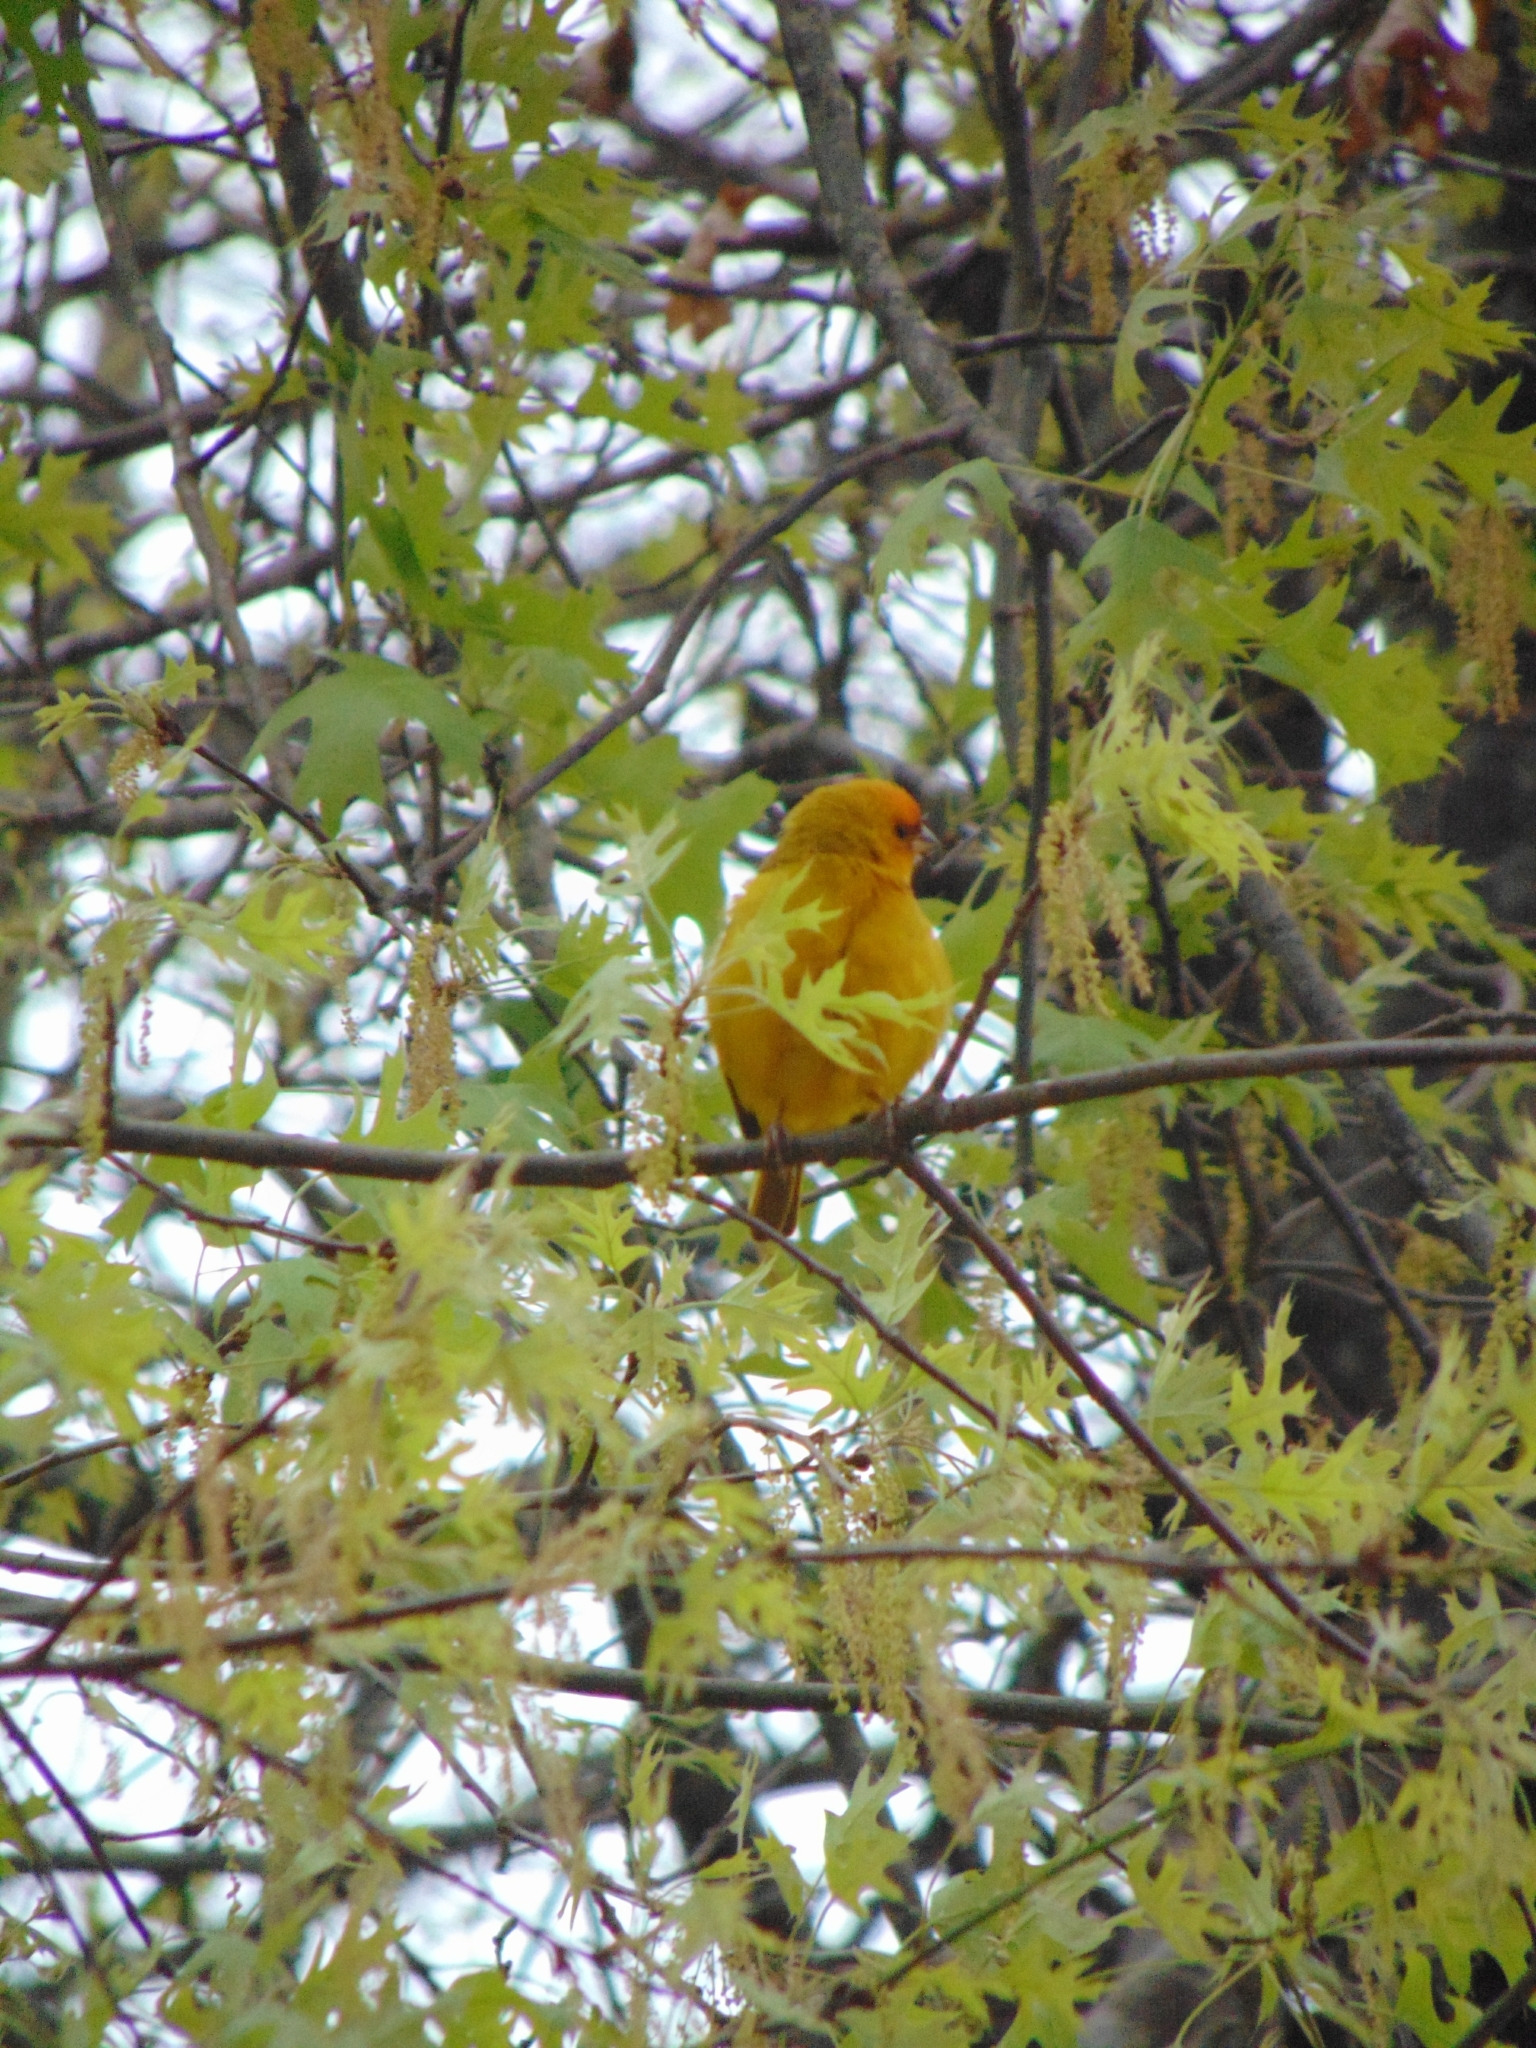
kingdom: Animalia
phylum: Chordata
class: Aves
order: Passeriformes
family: Thraupidae
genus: Sicalis
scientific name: Sicalis flaveola
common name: Saffron finch
